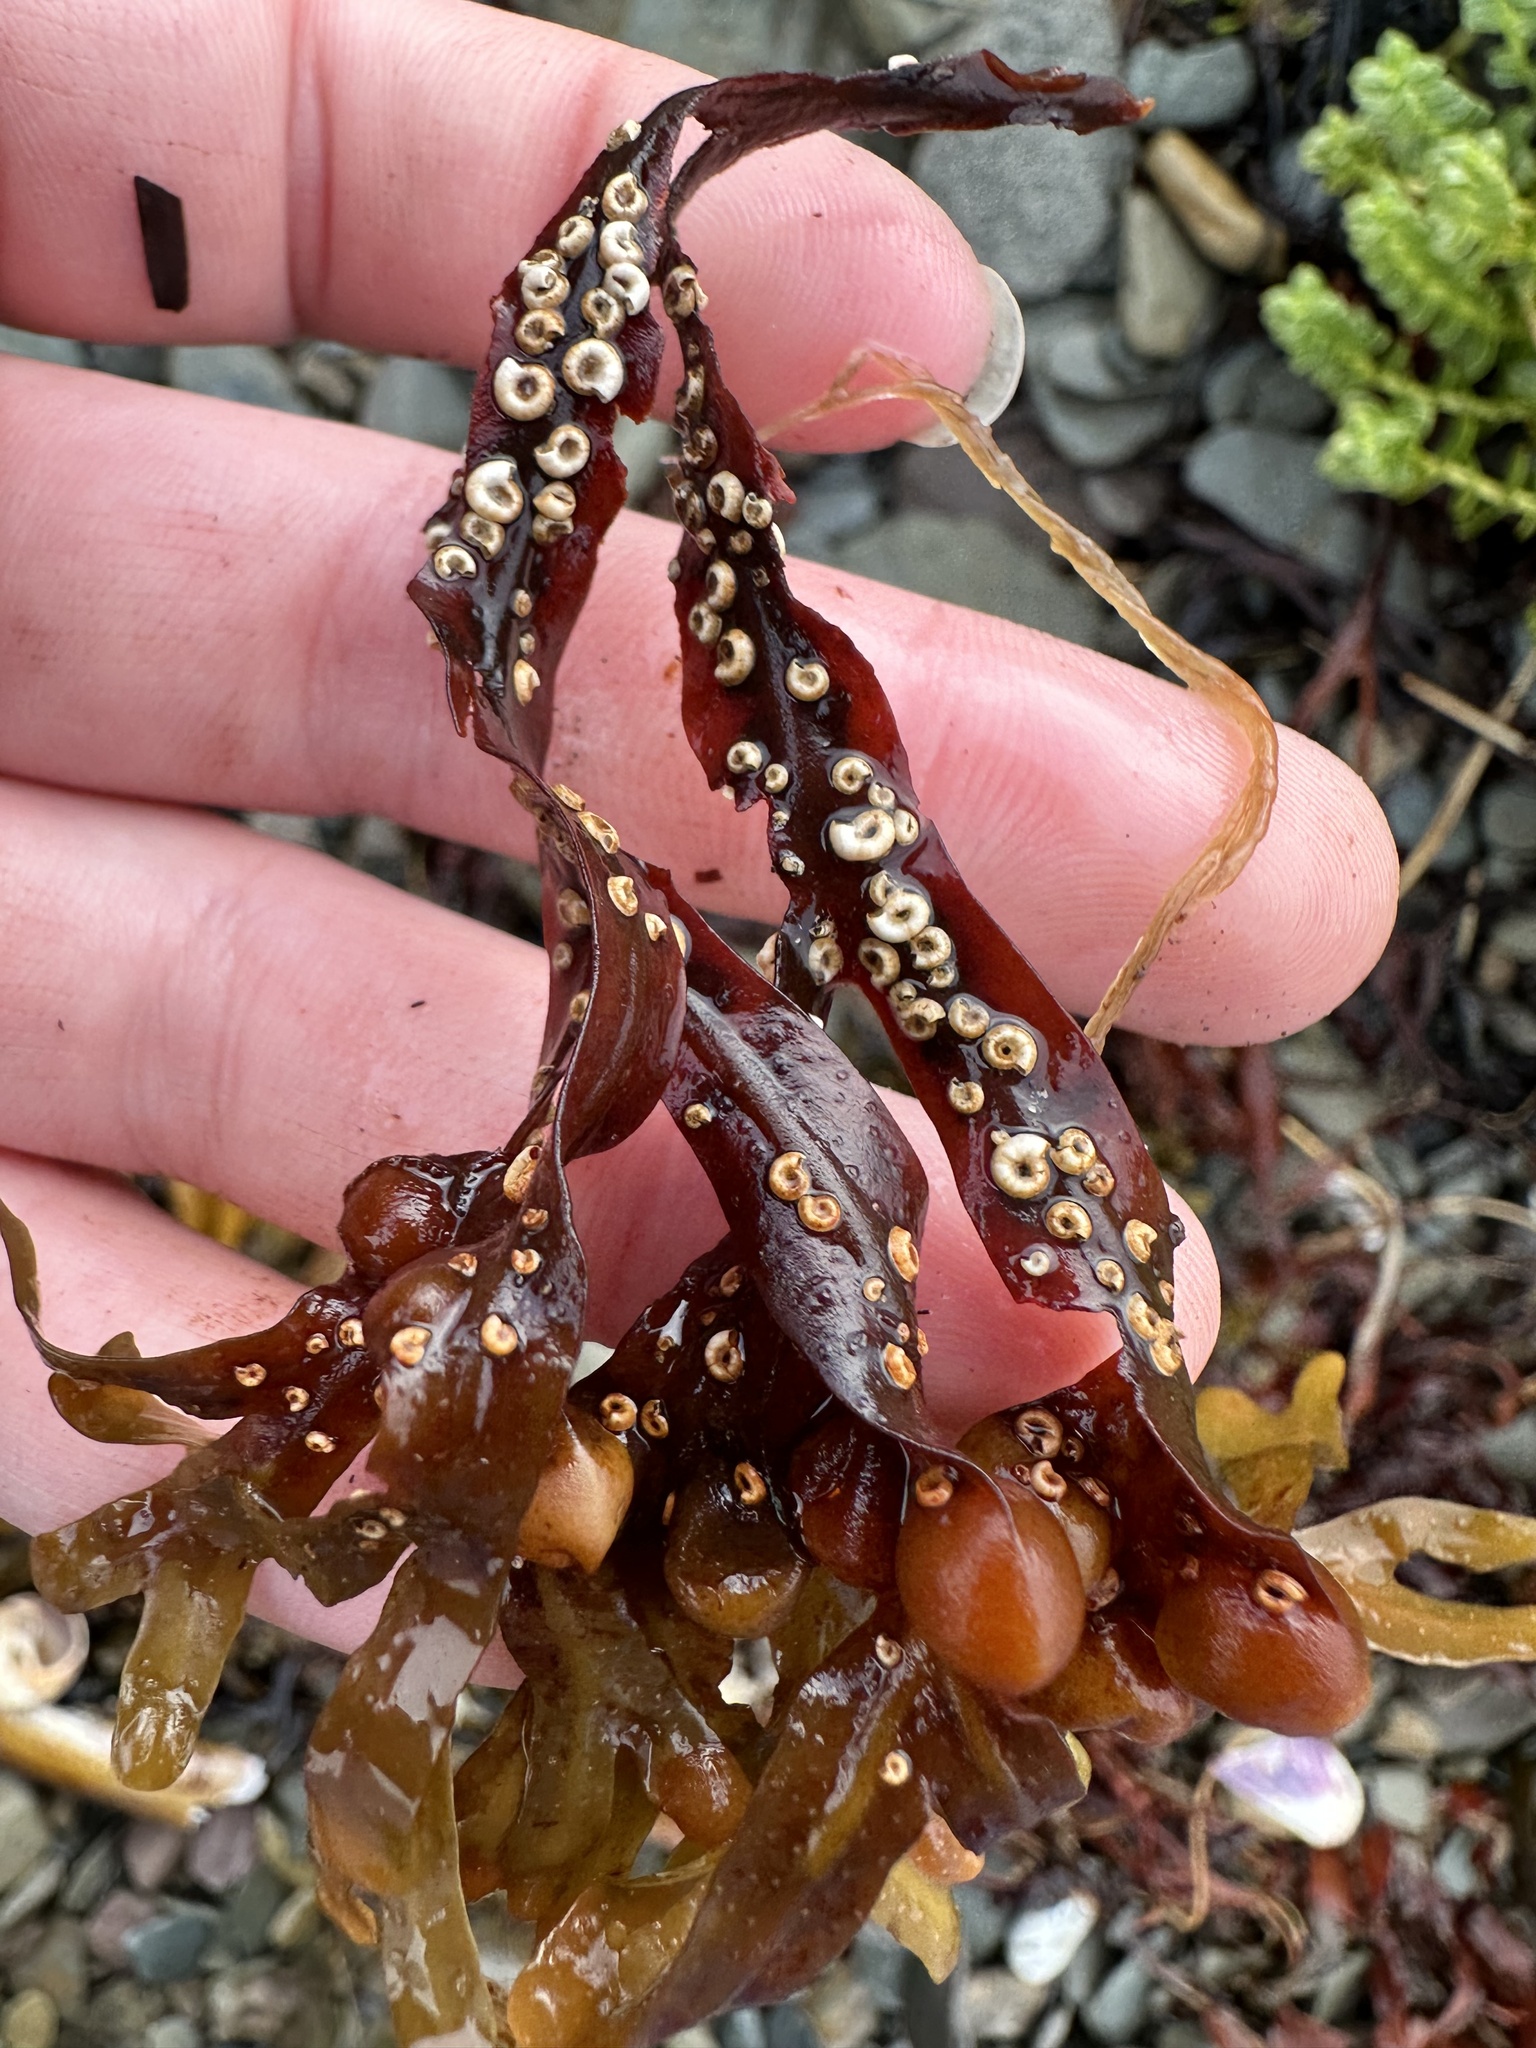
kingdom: Animalia
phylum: Annelida
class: Polychaeta
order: Sabellida
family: Serpulidae
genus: Spirorbis
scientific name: Spirorbis spirorbis
